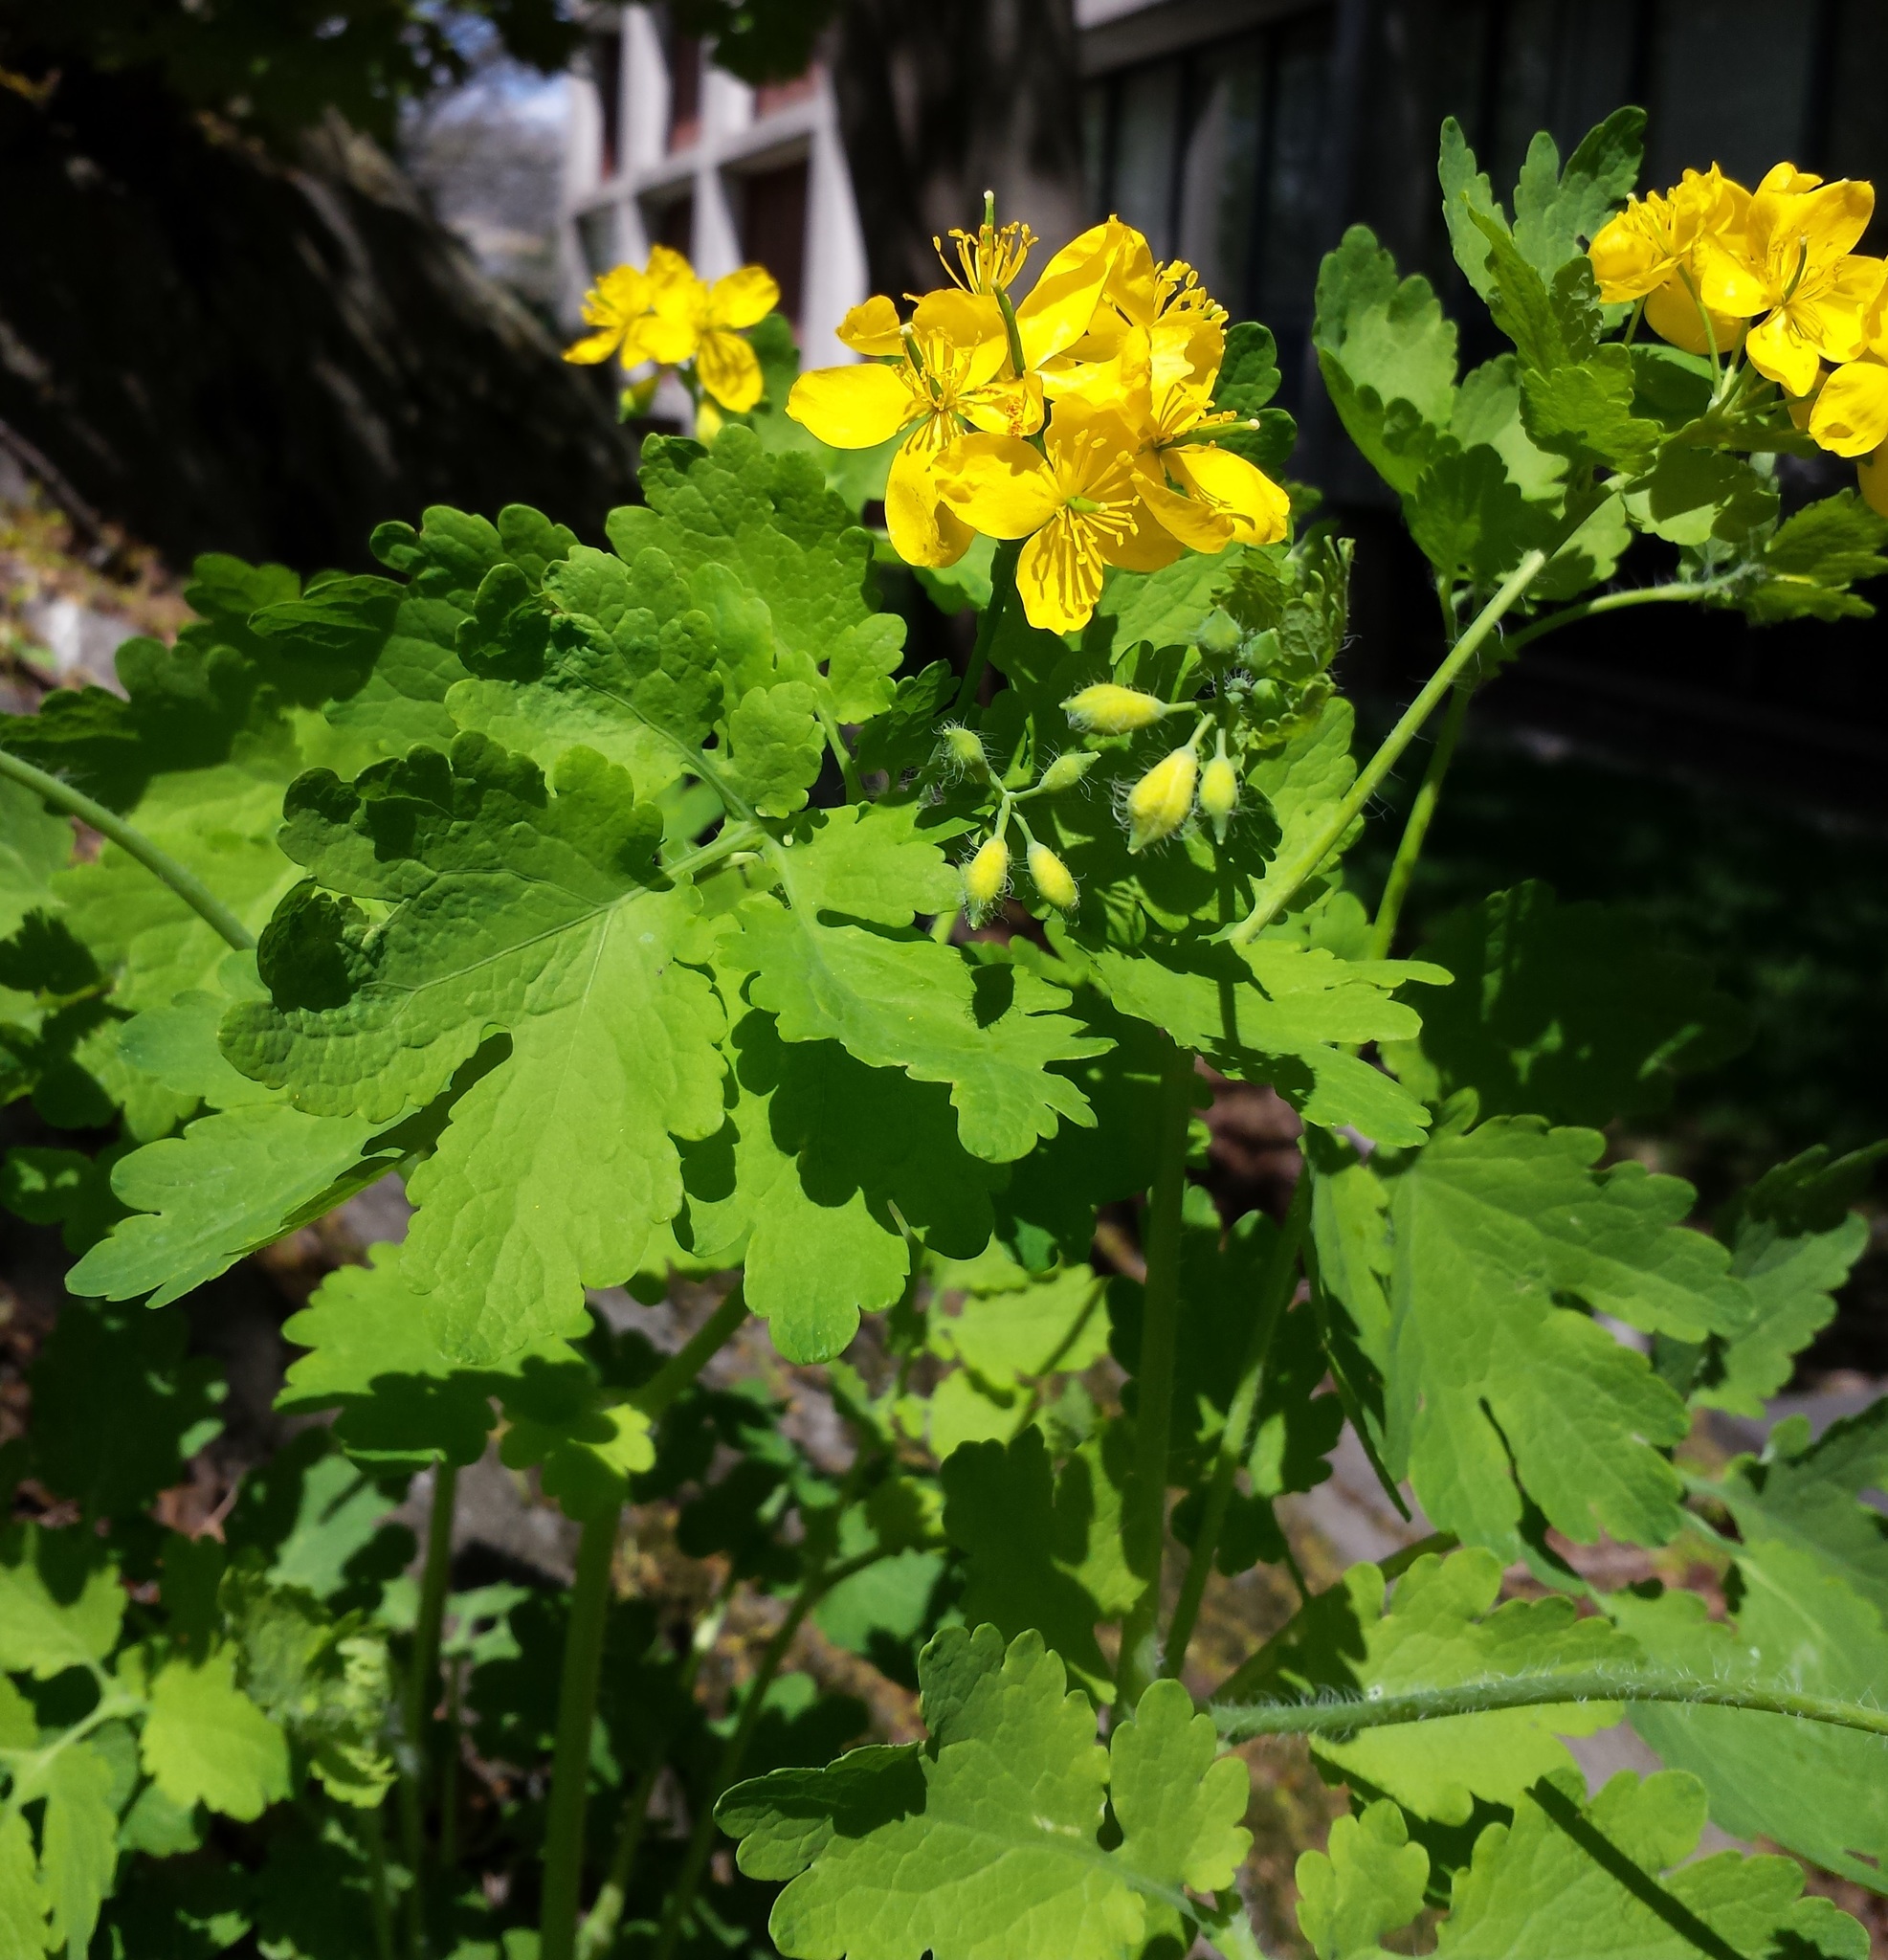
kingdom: Plantae
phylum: Tracheophyta
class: Magnoliopsida
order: Ranunculales
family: Papaveraceae
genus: Chelidonium
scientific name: Chelidonium majus
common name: Greater celandine
